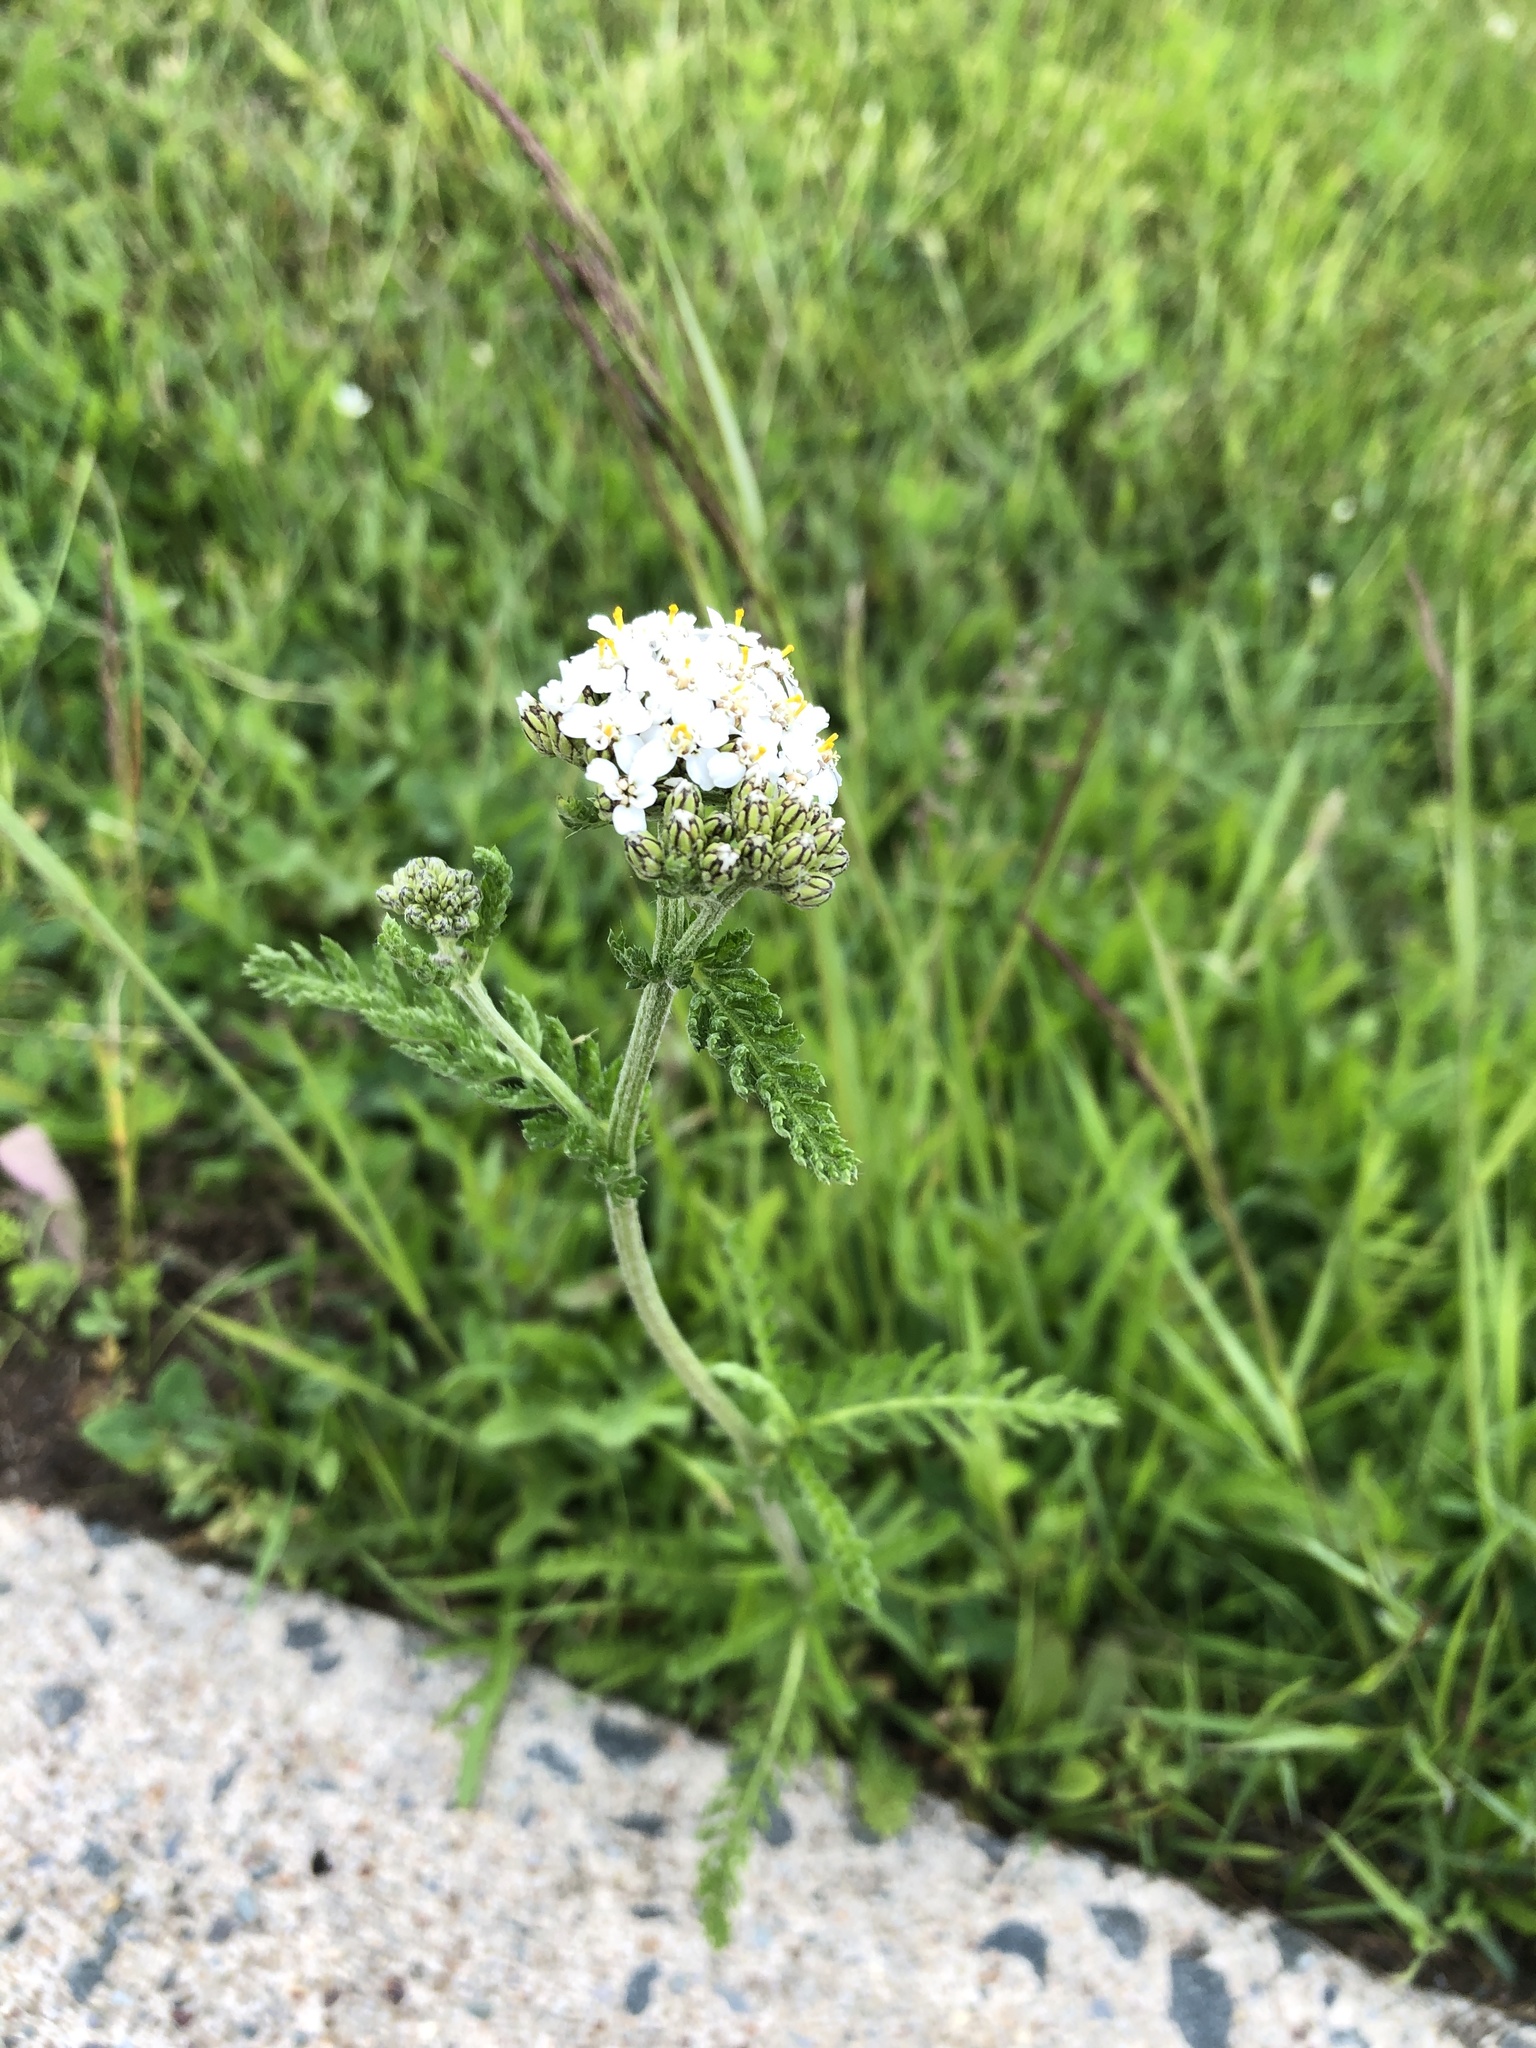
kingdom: Plantae
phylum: Tracheophyta
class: Magnoliopsida
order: Asterales
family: Asteraceae
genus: Achillea
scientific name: Achillea millefolium
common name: Yarrow
